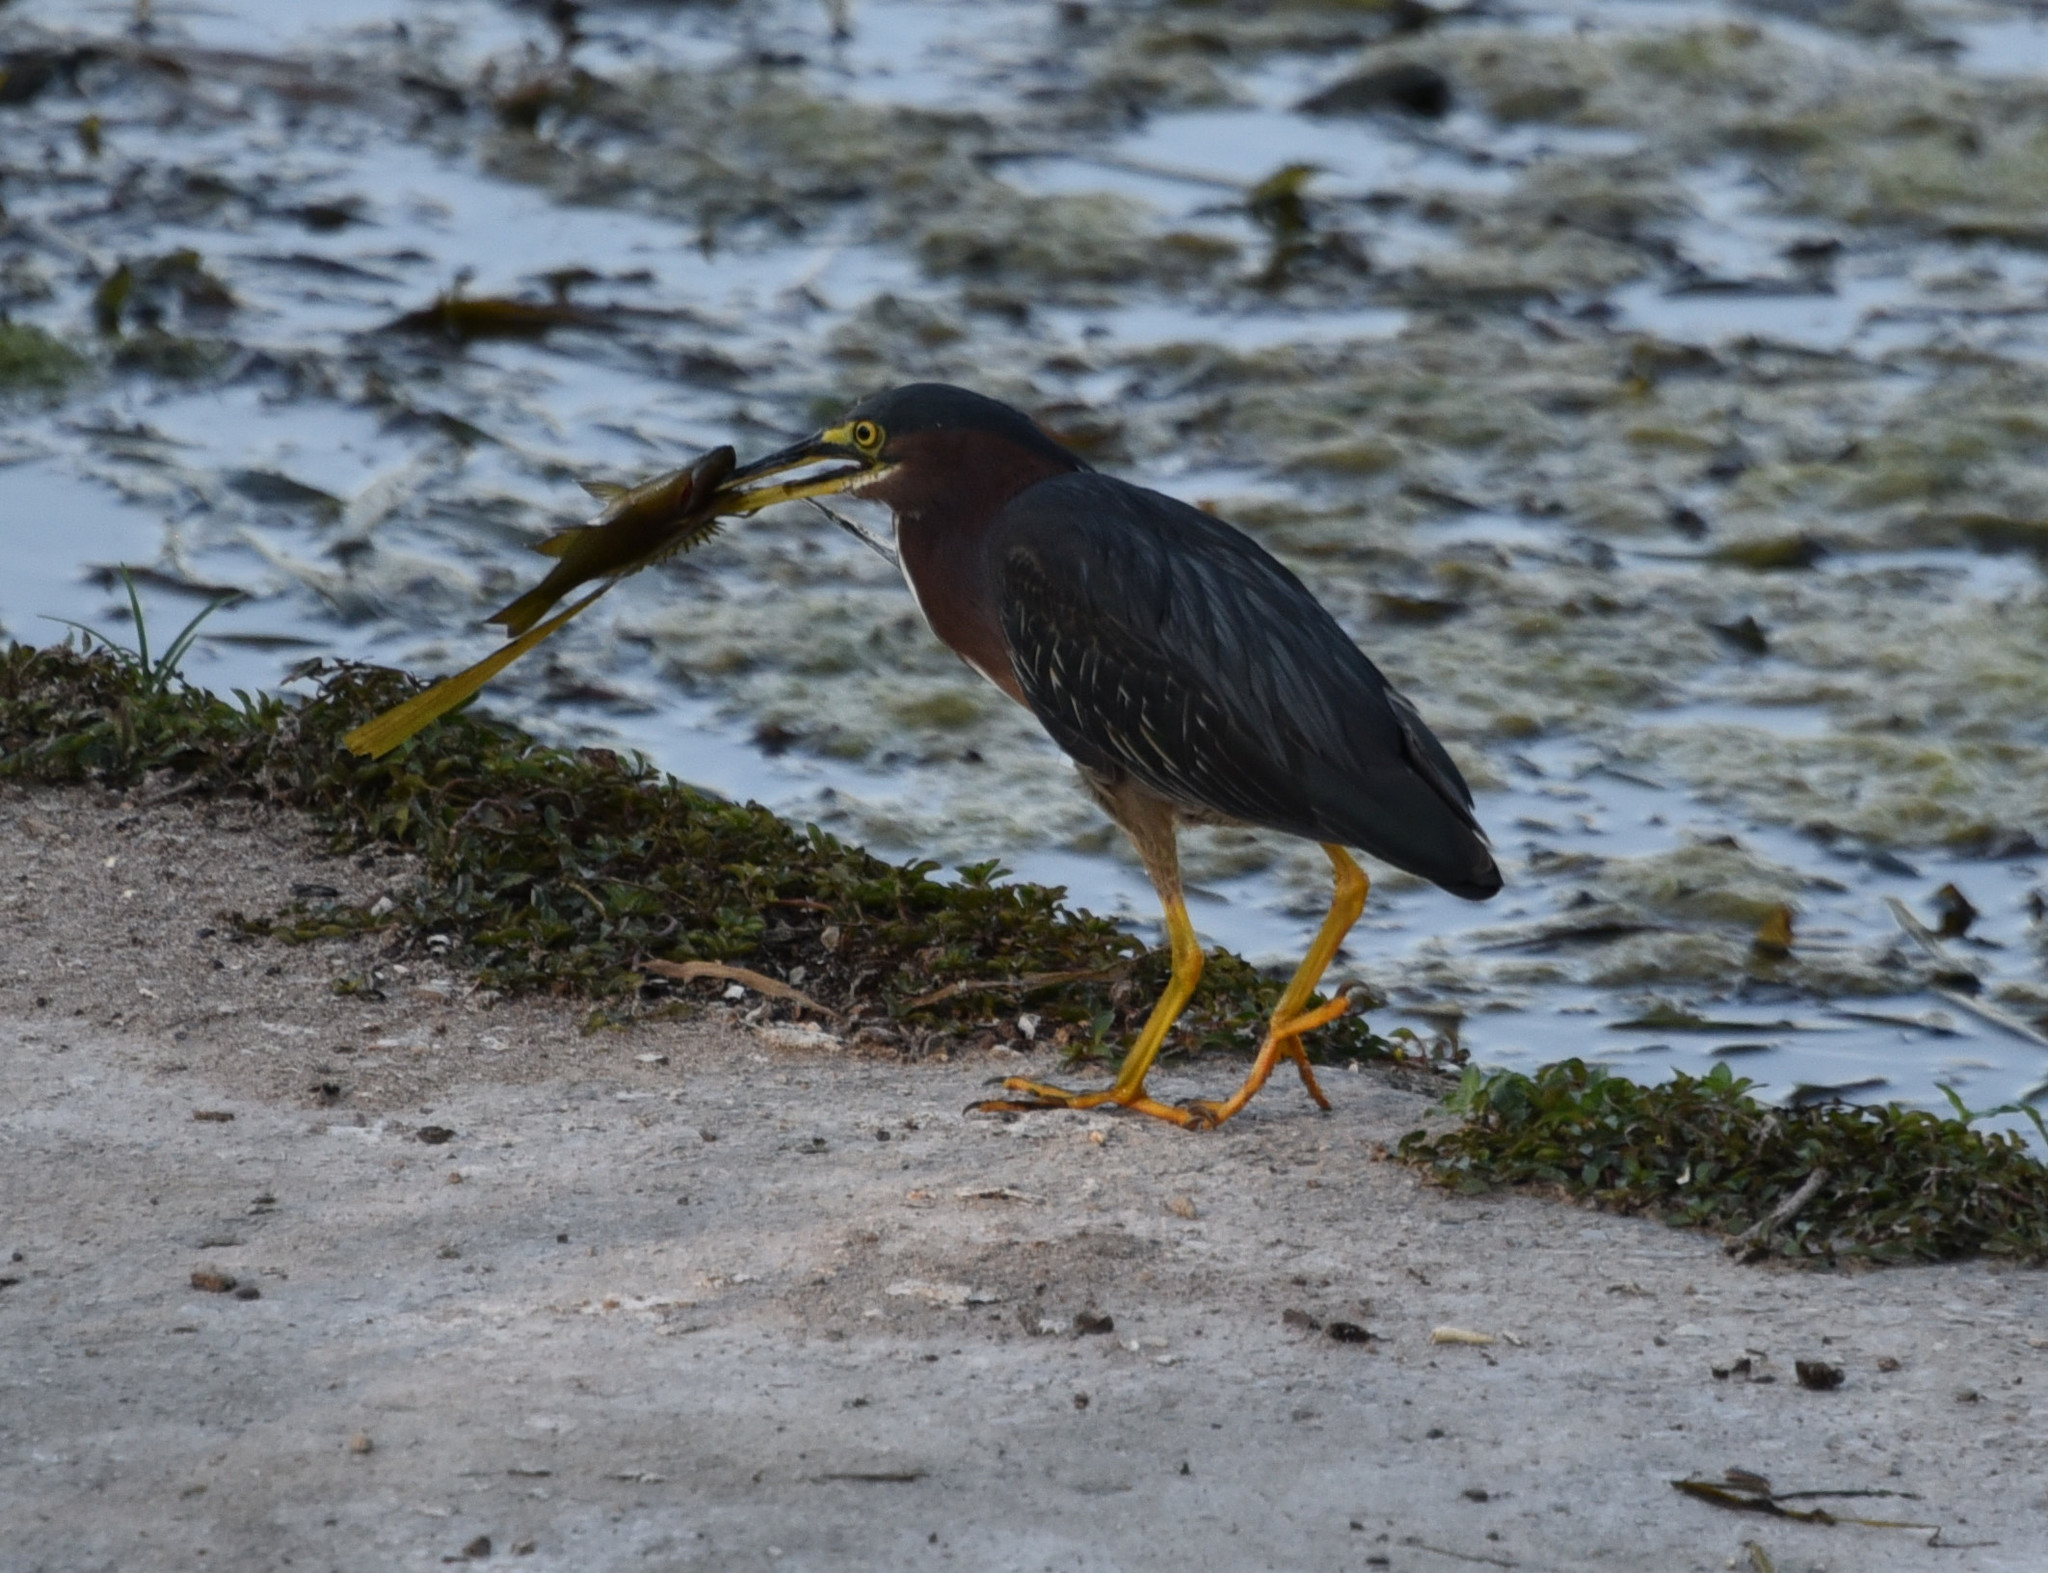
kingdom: Animalia
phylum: Chordata
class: Aves
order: Pelecaniformes
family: Ardeidae
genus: Butorides
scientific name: Butorides virescens
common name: Green heron
